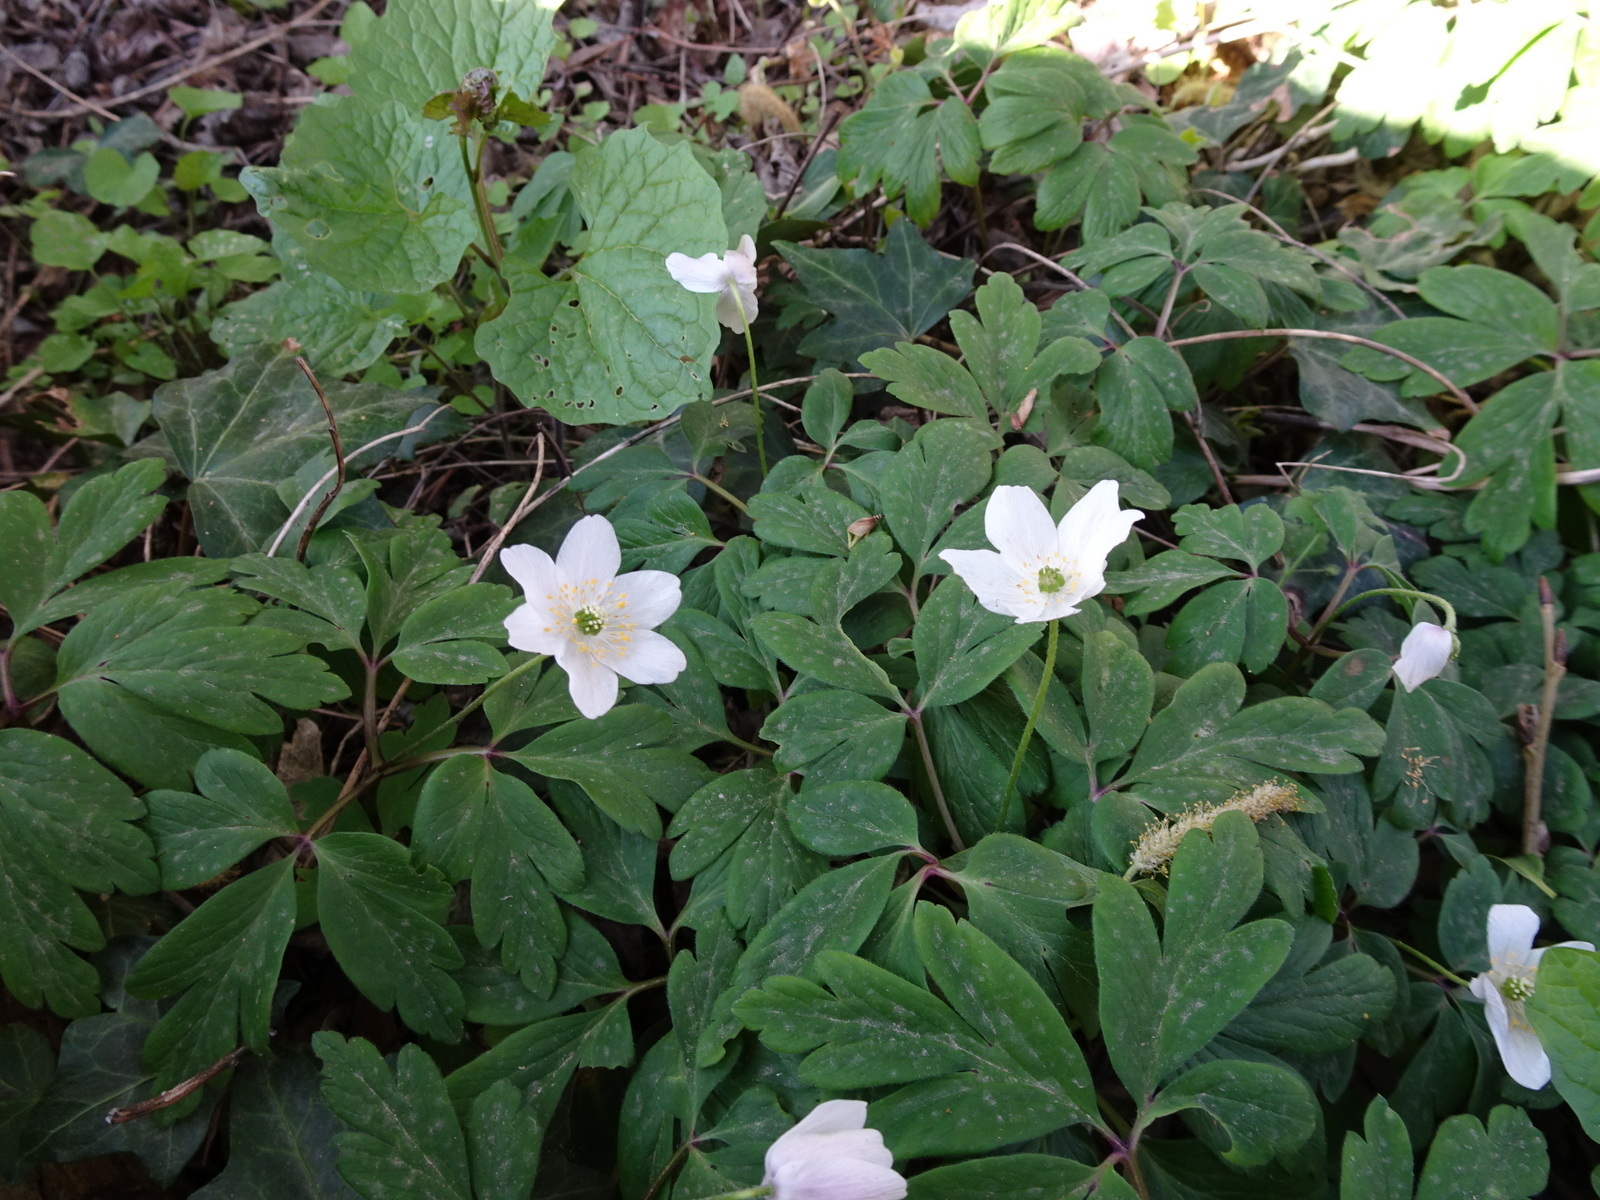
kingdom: Plantae
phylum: Tracheophyta
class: Magnoliopsida
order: Ranunculales
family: Ranunculaceae
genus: Anemone
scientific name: Anemone nemorosa
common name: Wood anemone
